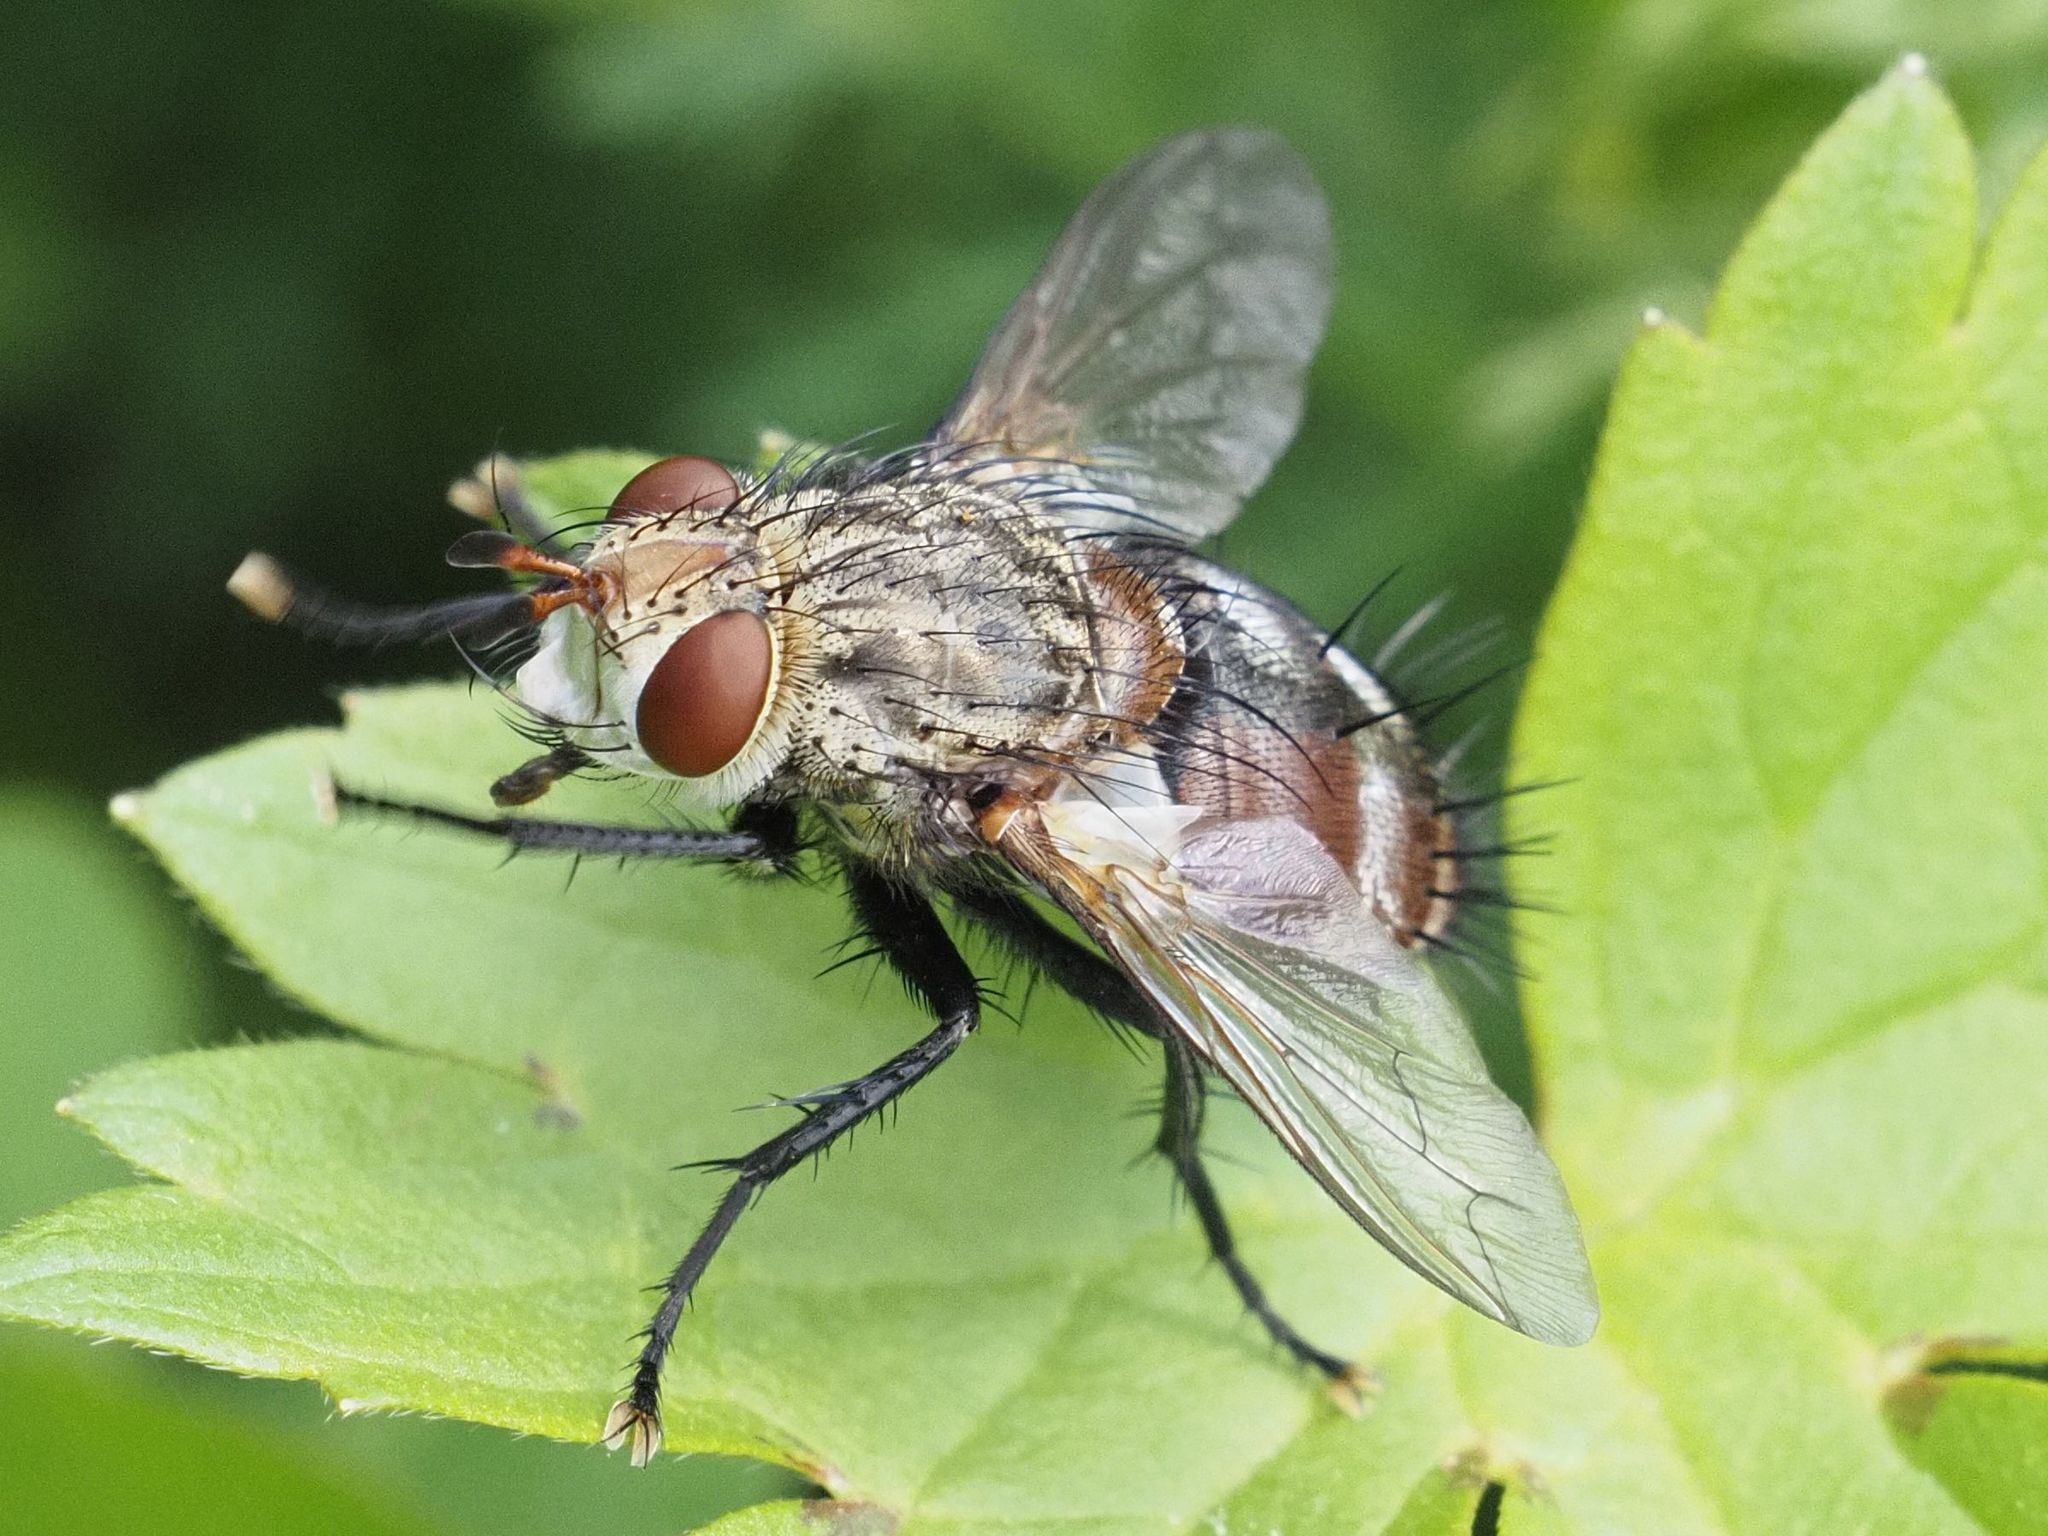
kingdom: Animalia
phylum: Arthropoda
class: Insecta
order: Diptera
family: Tachinidae
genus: Peleteria
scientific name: Peleteria javana
